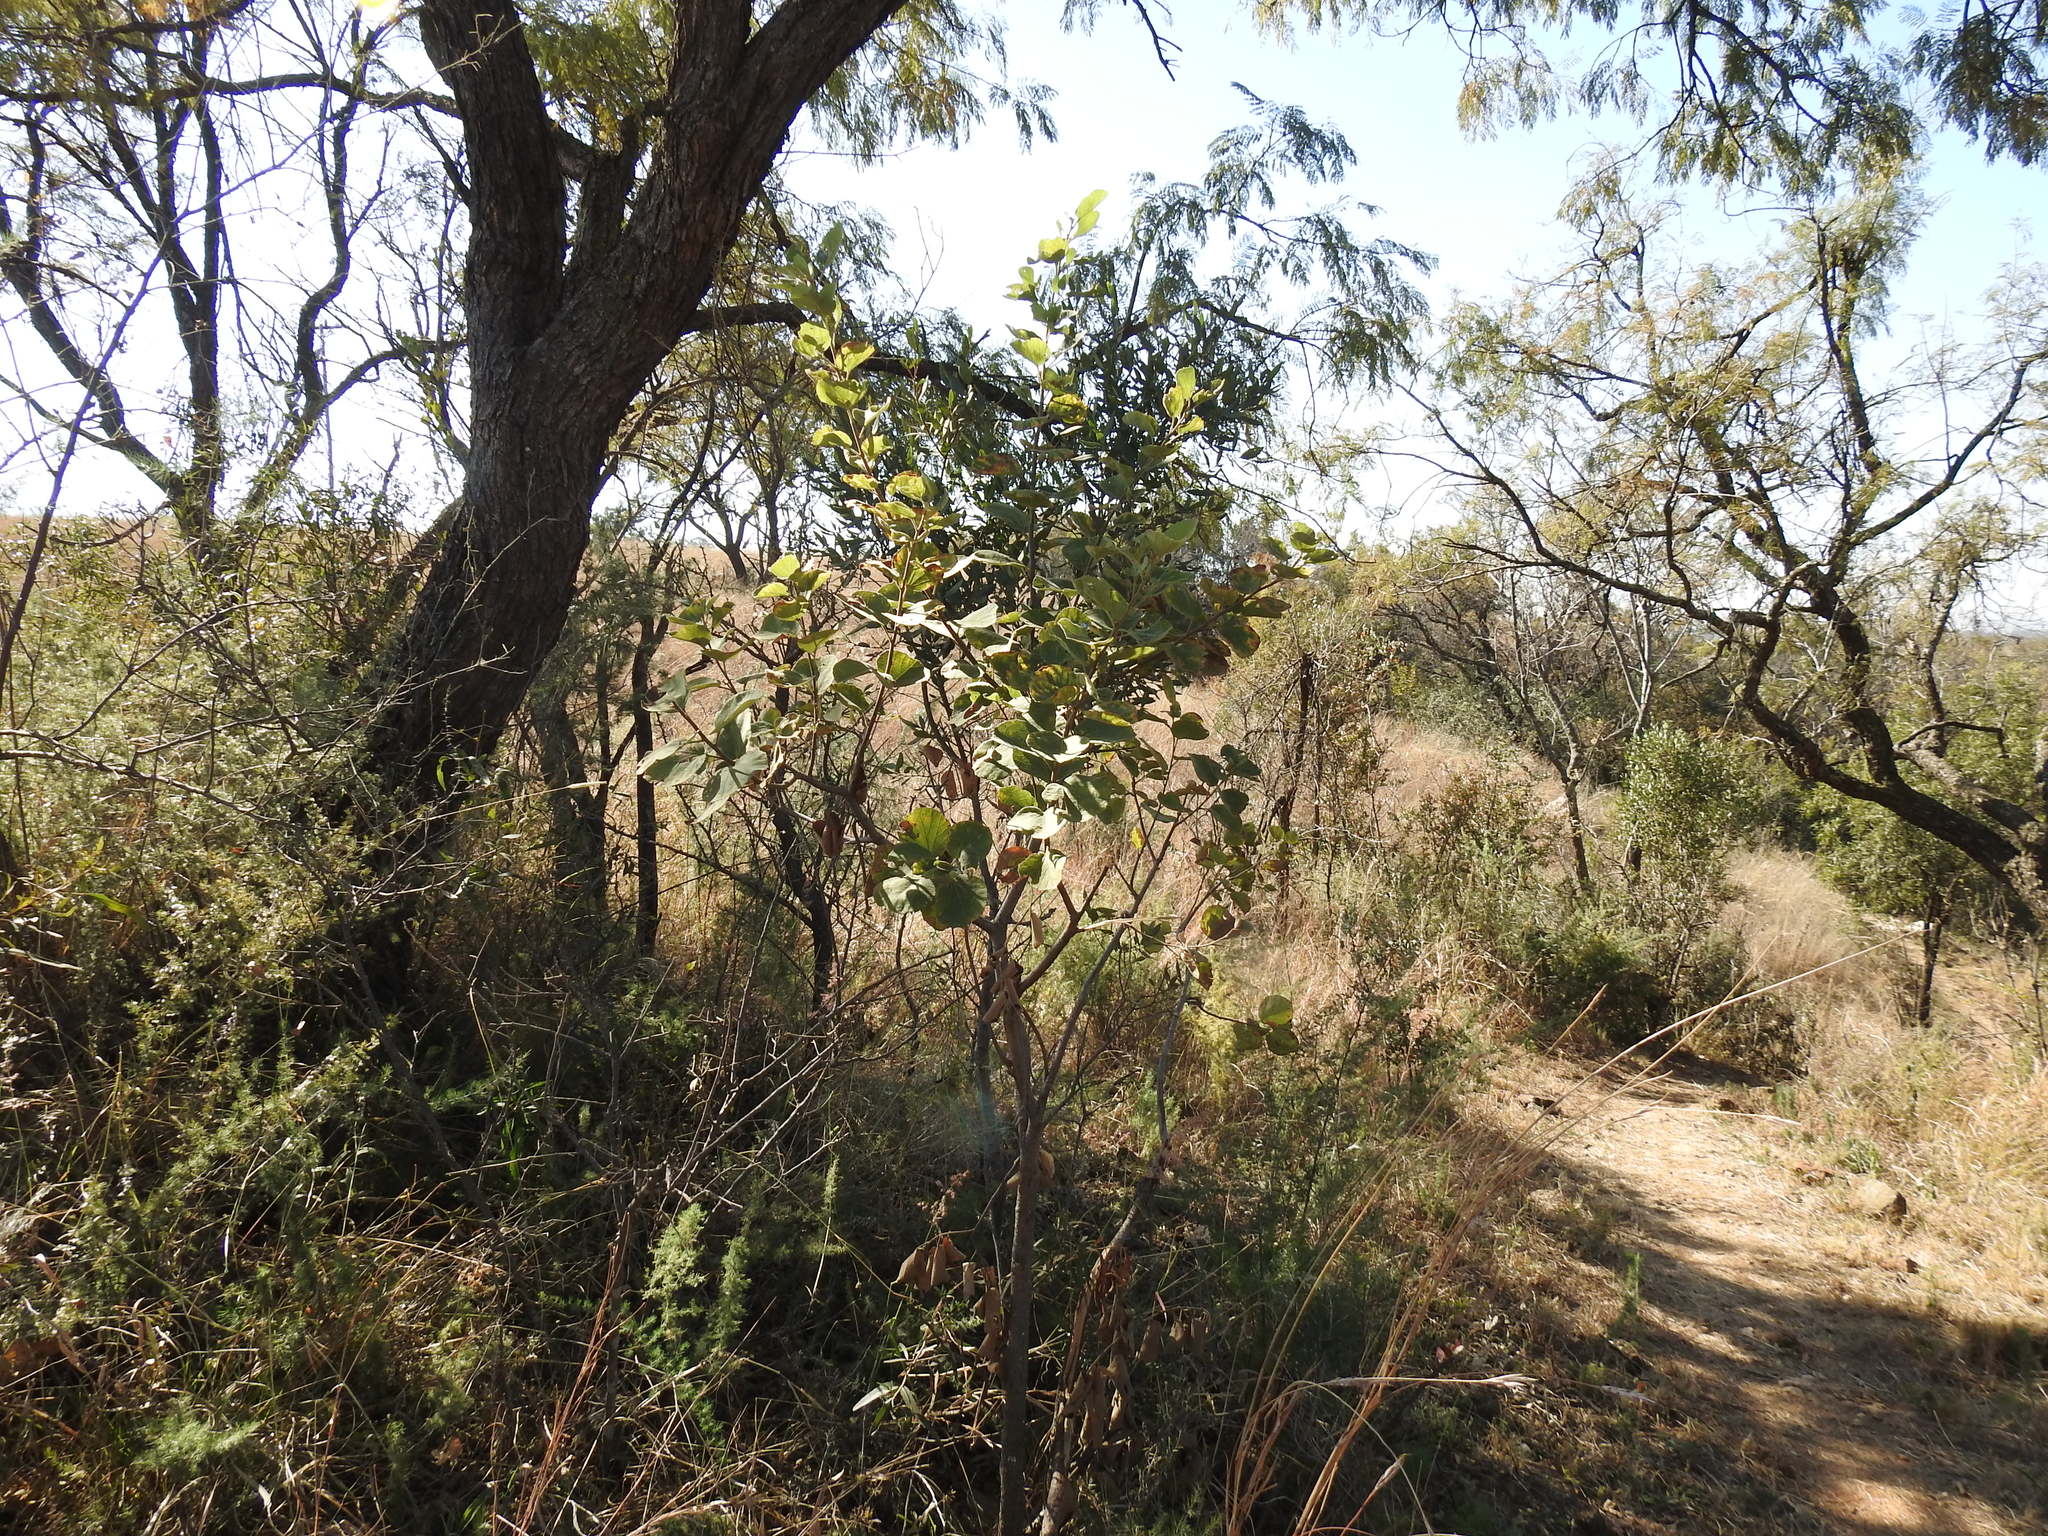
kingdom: Plantae
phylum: Tracheophyta
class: Magnoliopsida
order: Malvales
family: Malvaceae
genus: Dombeya
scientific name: Dombeya rotundifolia
